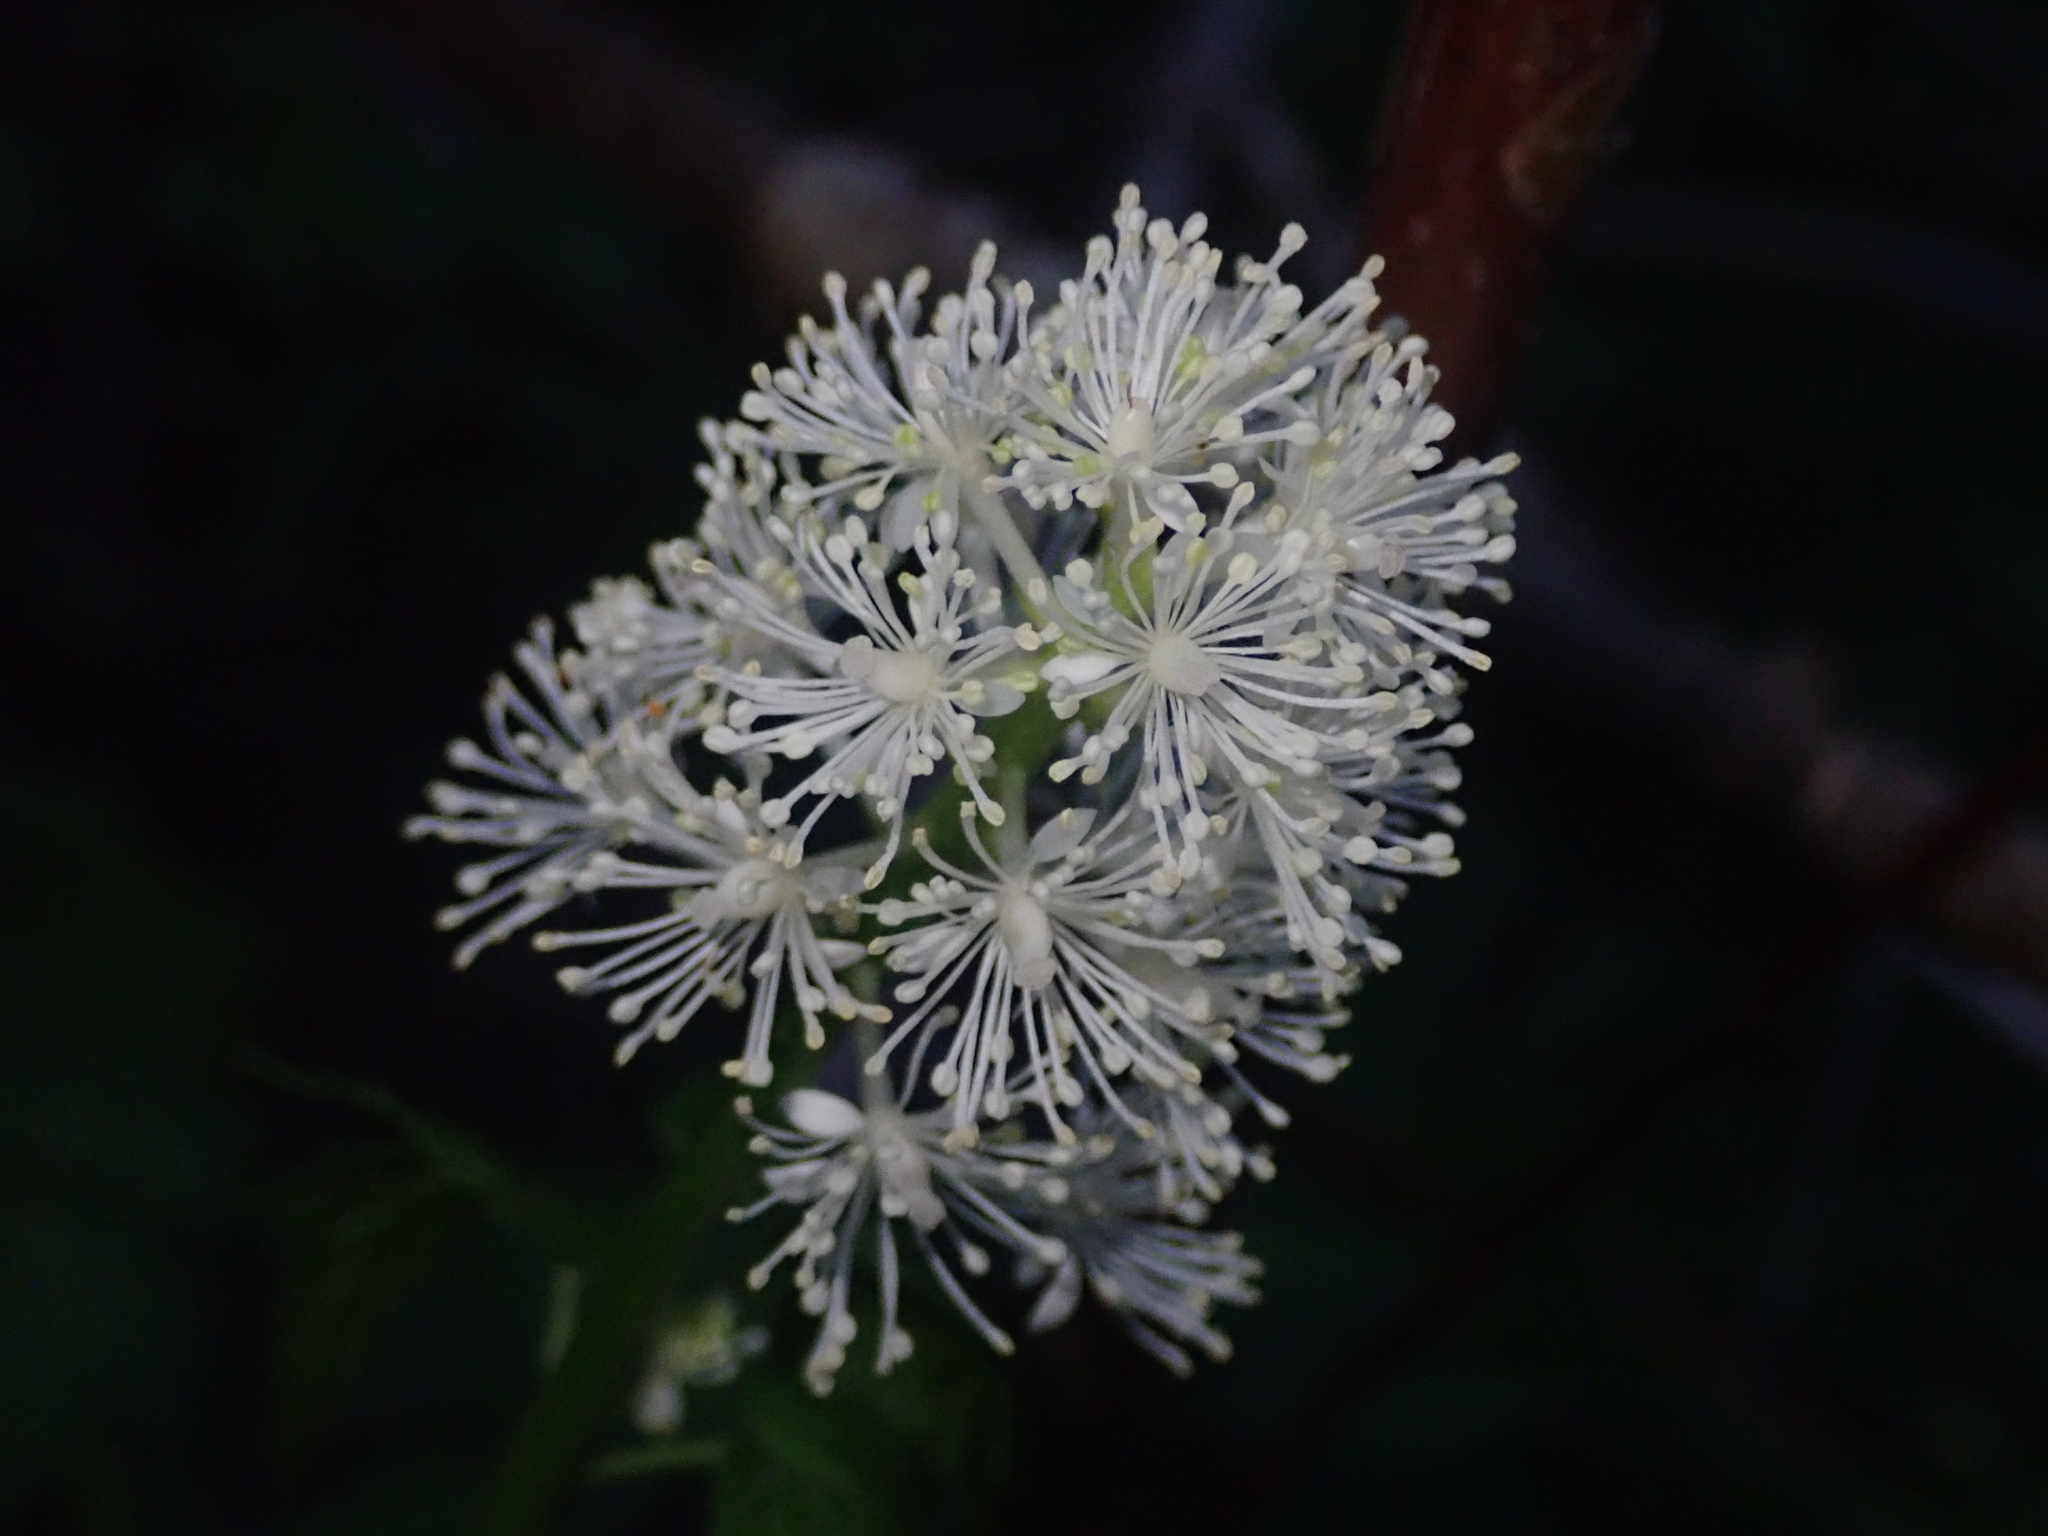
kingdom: Plantae
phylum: Tracheophyta
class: Magnoliopsida
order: Ranunculales
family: Ranunculaceae
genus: Actaea
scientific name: Actaea rubra
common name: Red baneberry
